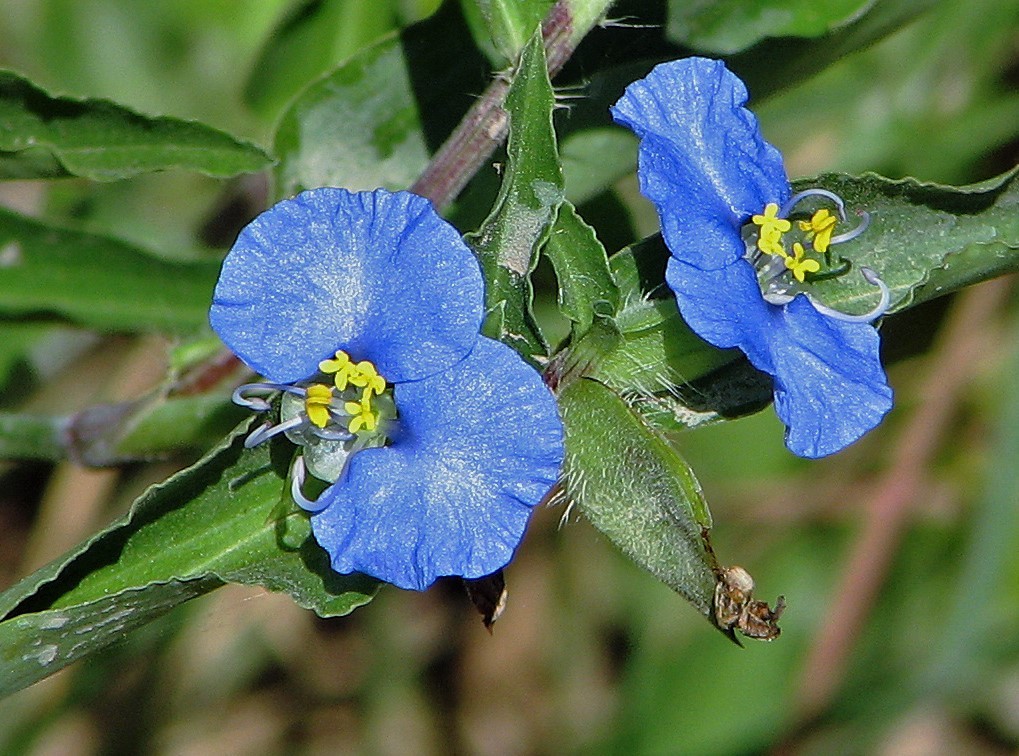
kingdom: Plantae
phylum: Tracheophyta
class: Liliopsida
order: Commelinales
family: Commelinaceae
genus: Commelina
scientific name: Commelina erecta
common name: Blousel blommetjie
